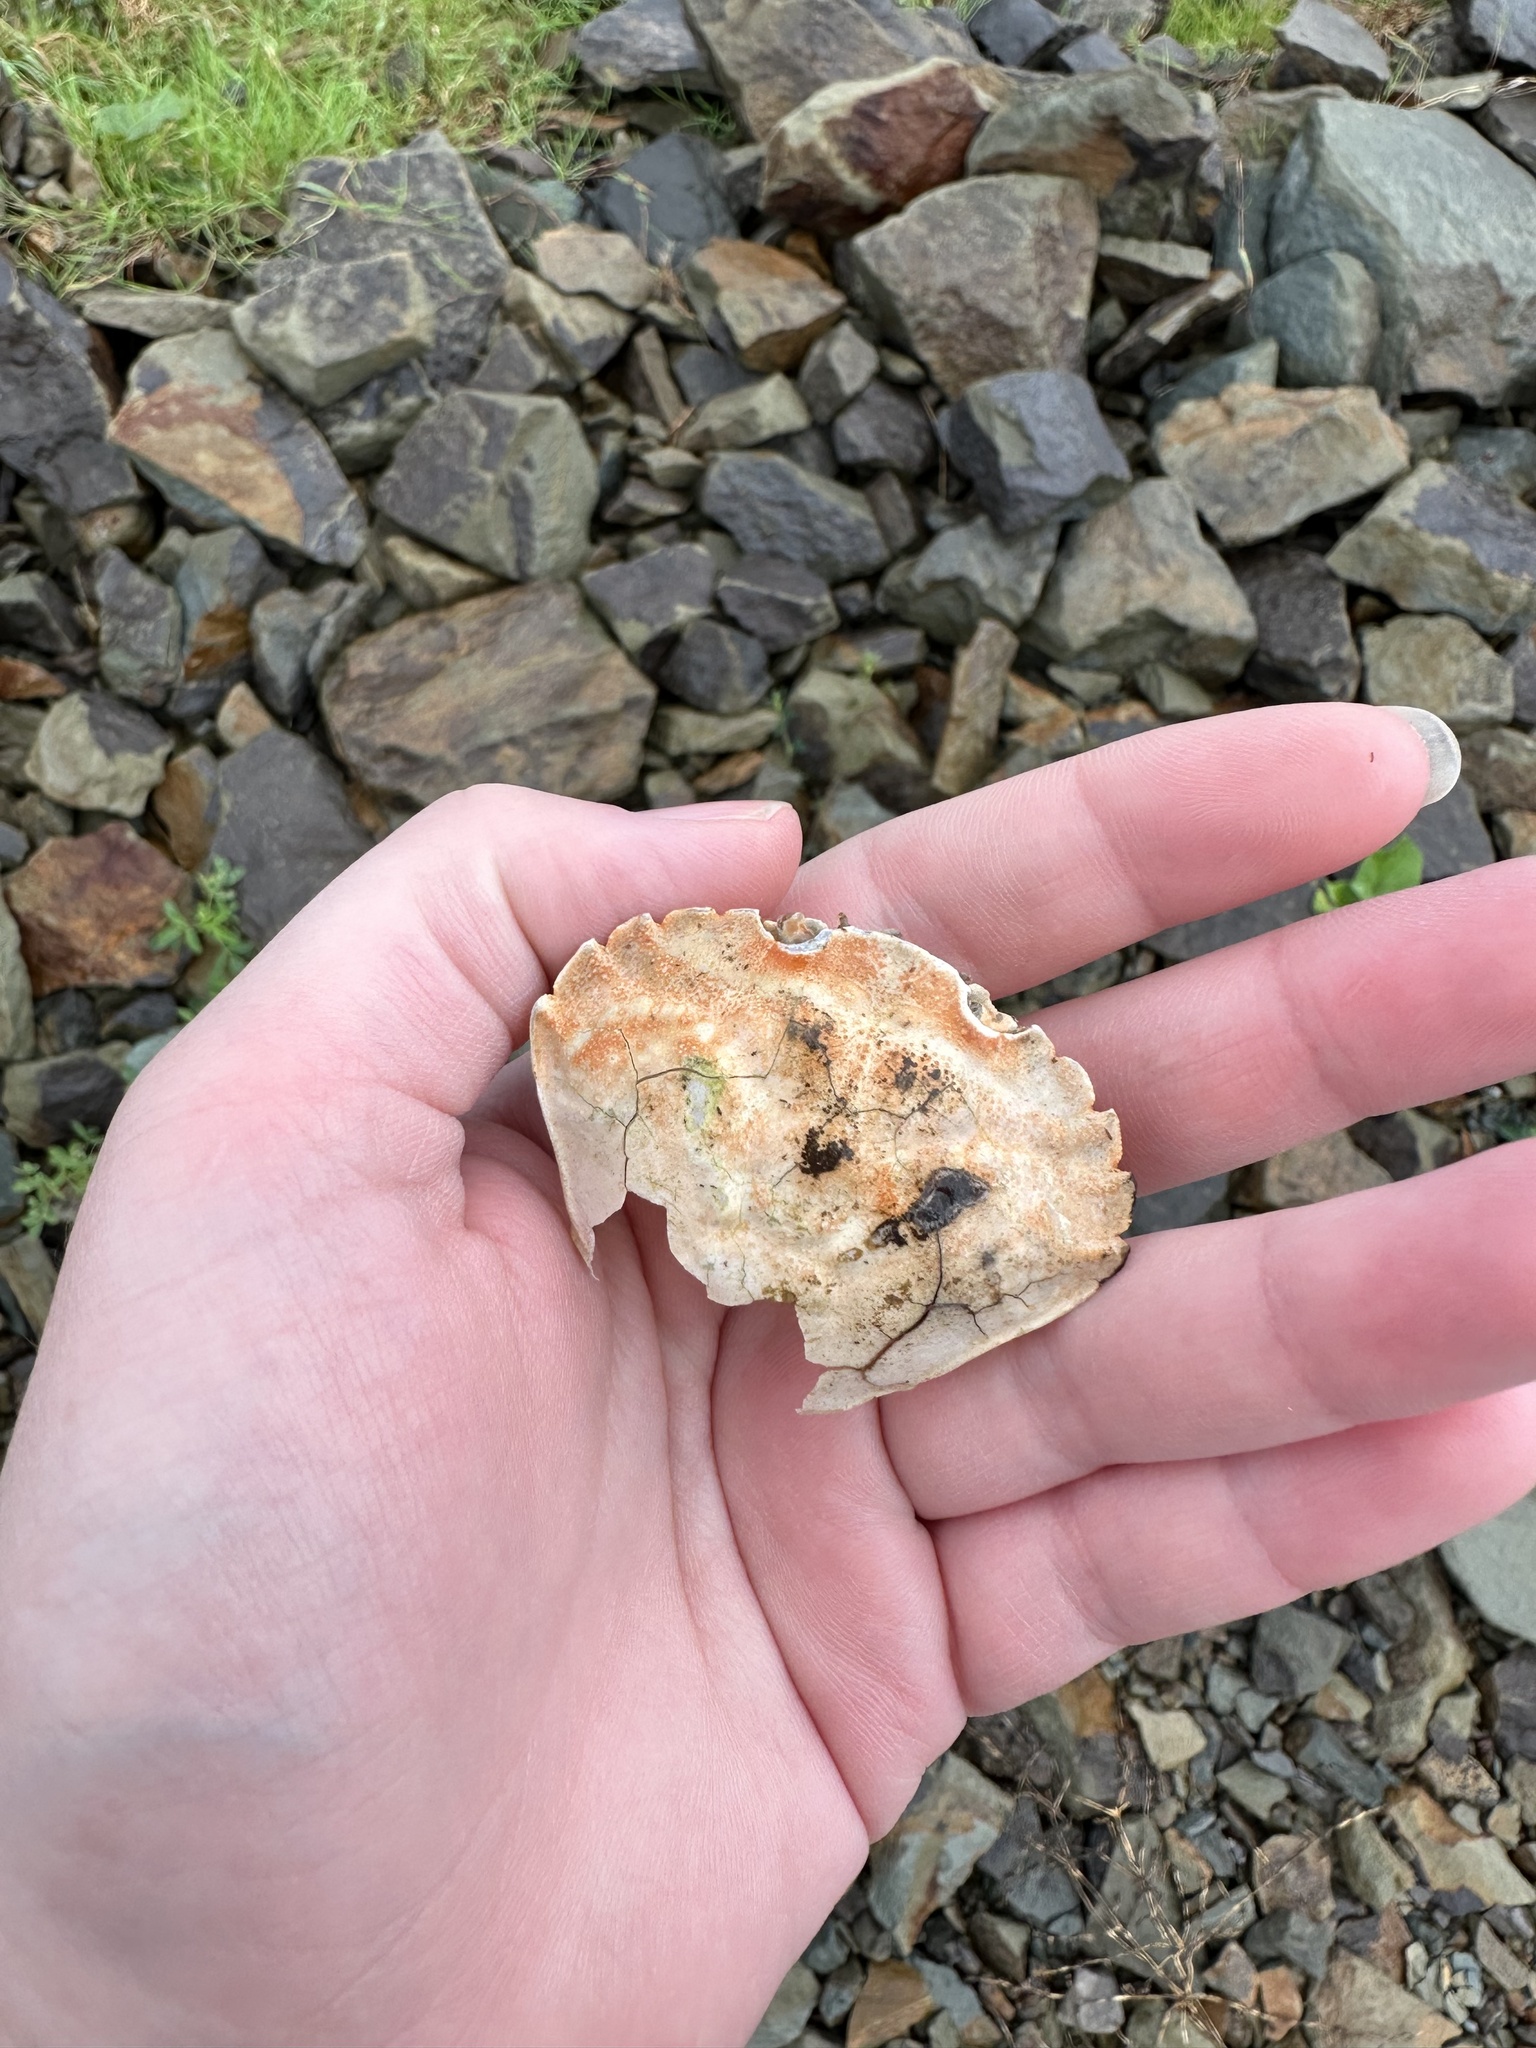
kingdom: Animalia
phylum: Arthropoda
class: Malacostraca
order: Decapoda
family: Carcinidae
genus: Carcinus
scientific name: Carcinus maenas
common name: European green crab
